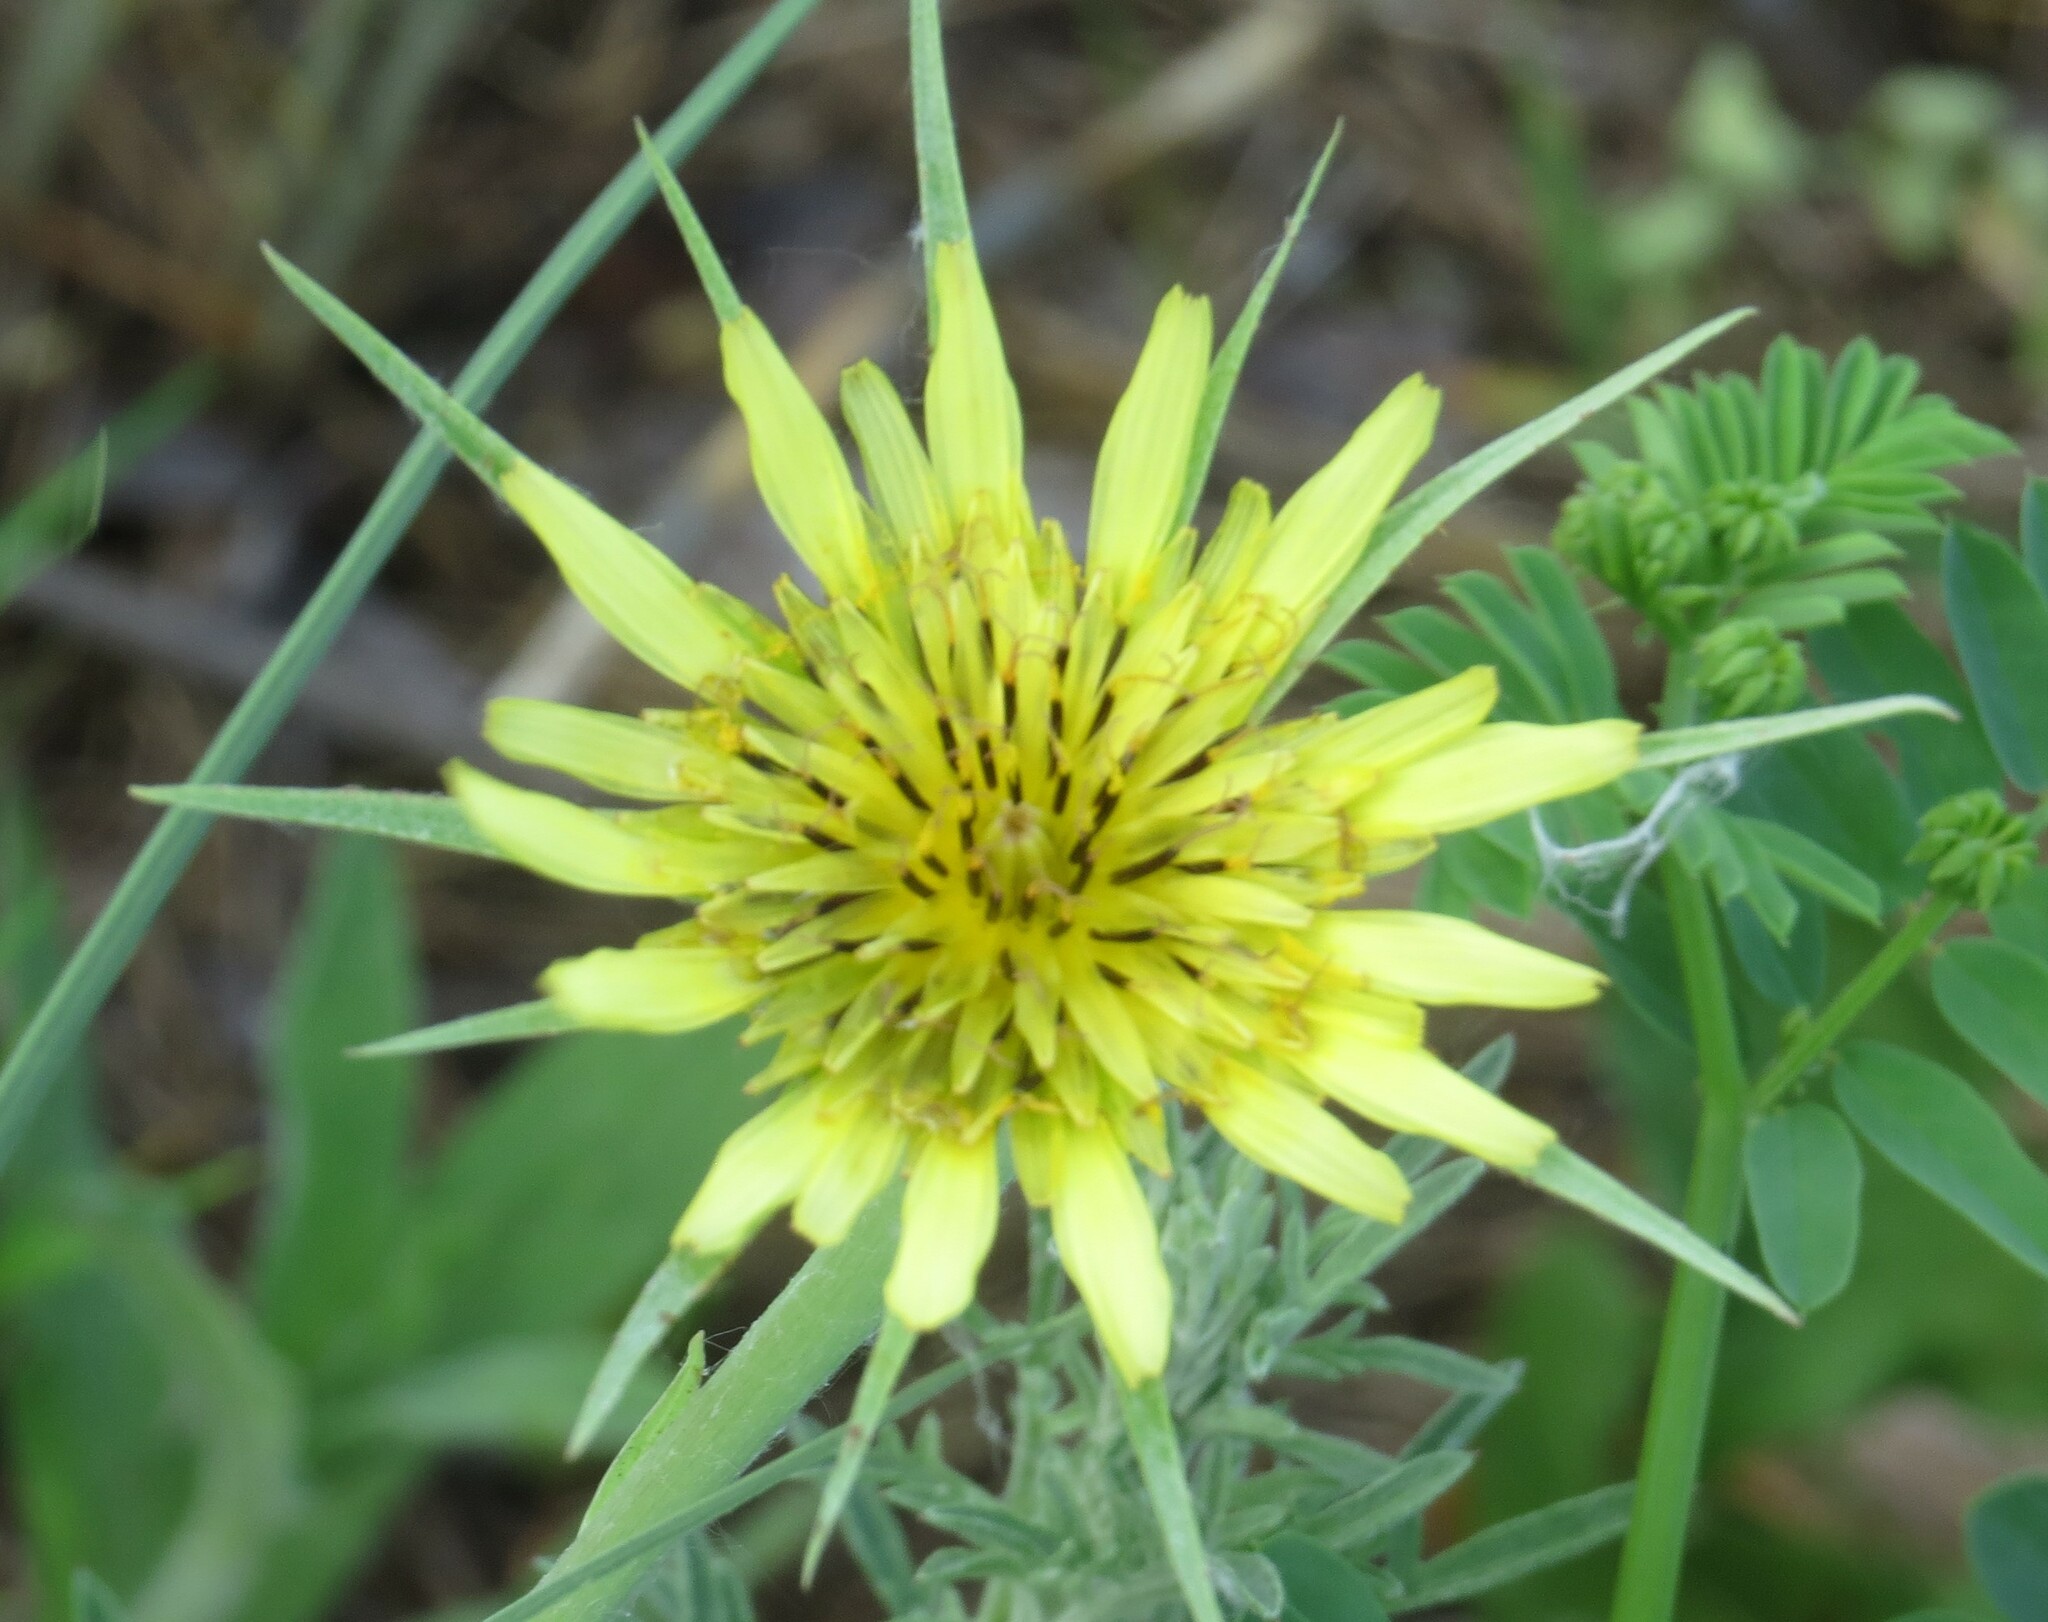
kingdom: Plantae
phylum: Tracheophyta
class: Magnoliopsida
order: Asterales
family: Asteraceae
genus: Tragopogon
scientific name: Tragopogon dubius
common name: Yellow salsify
